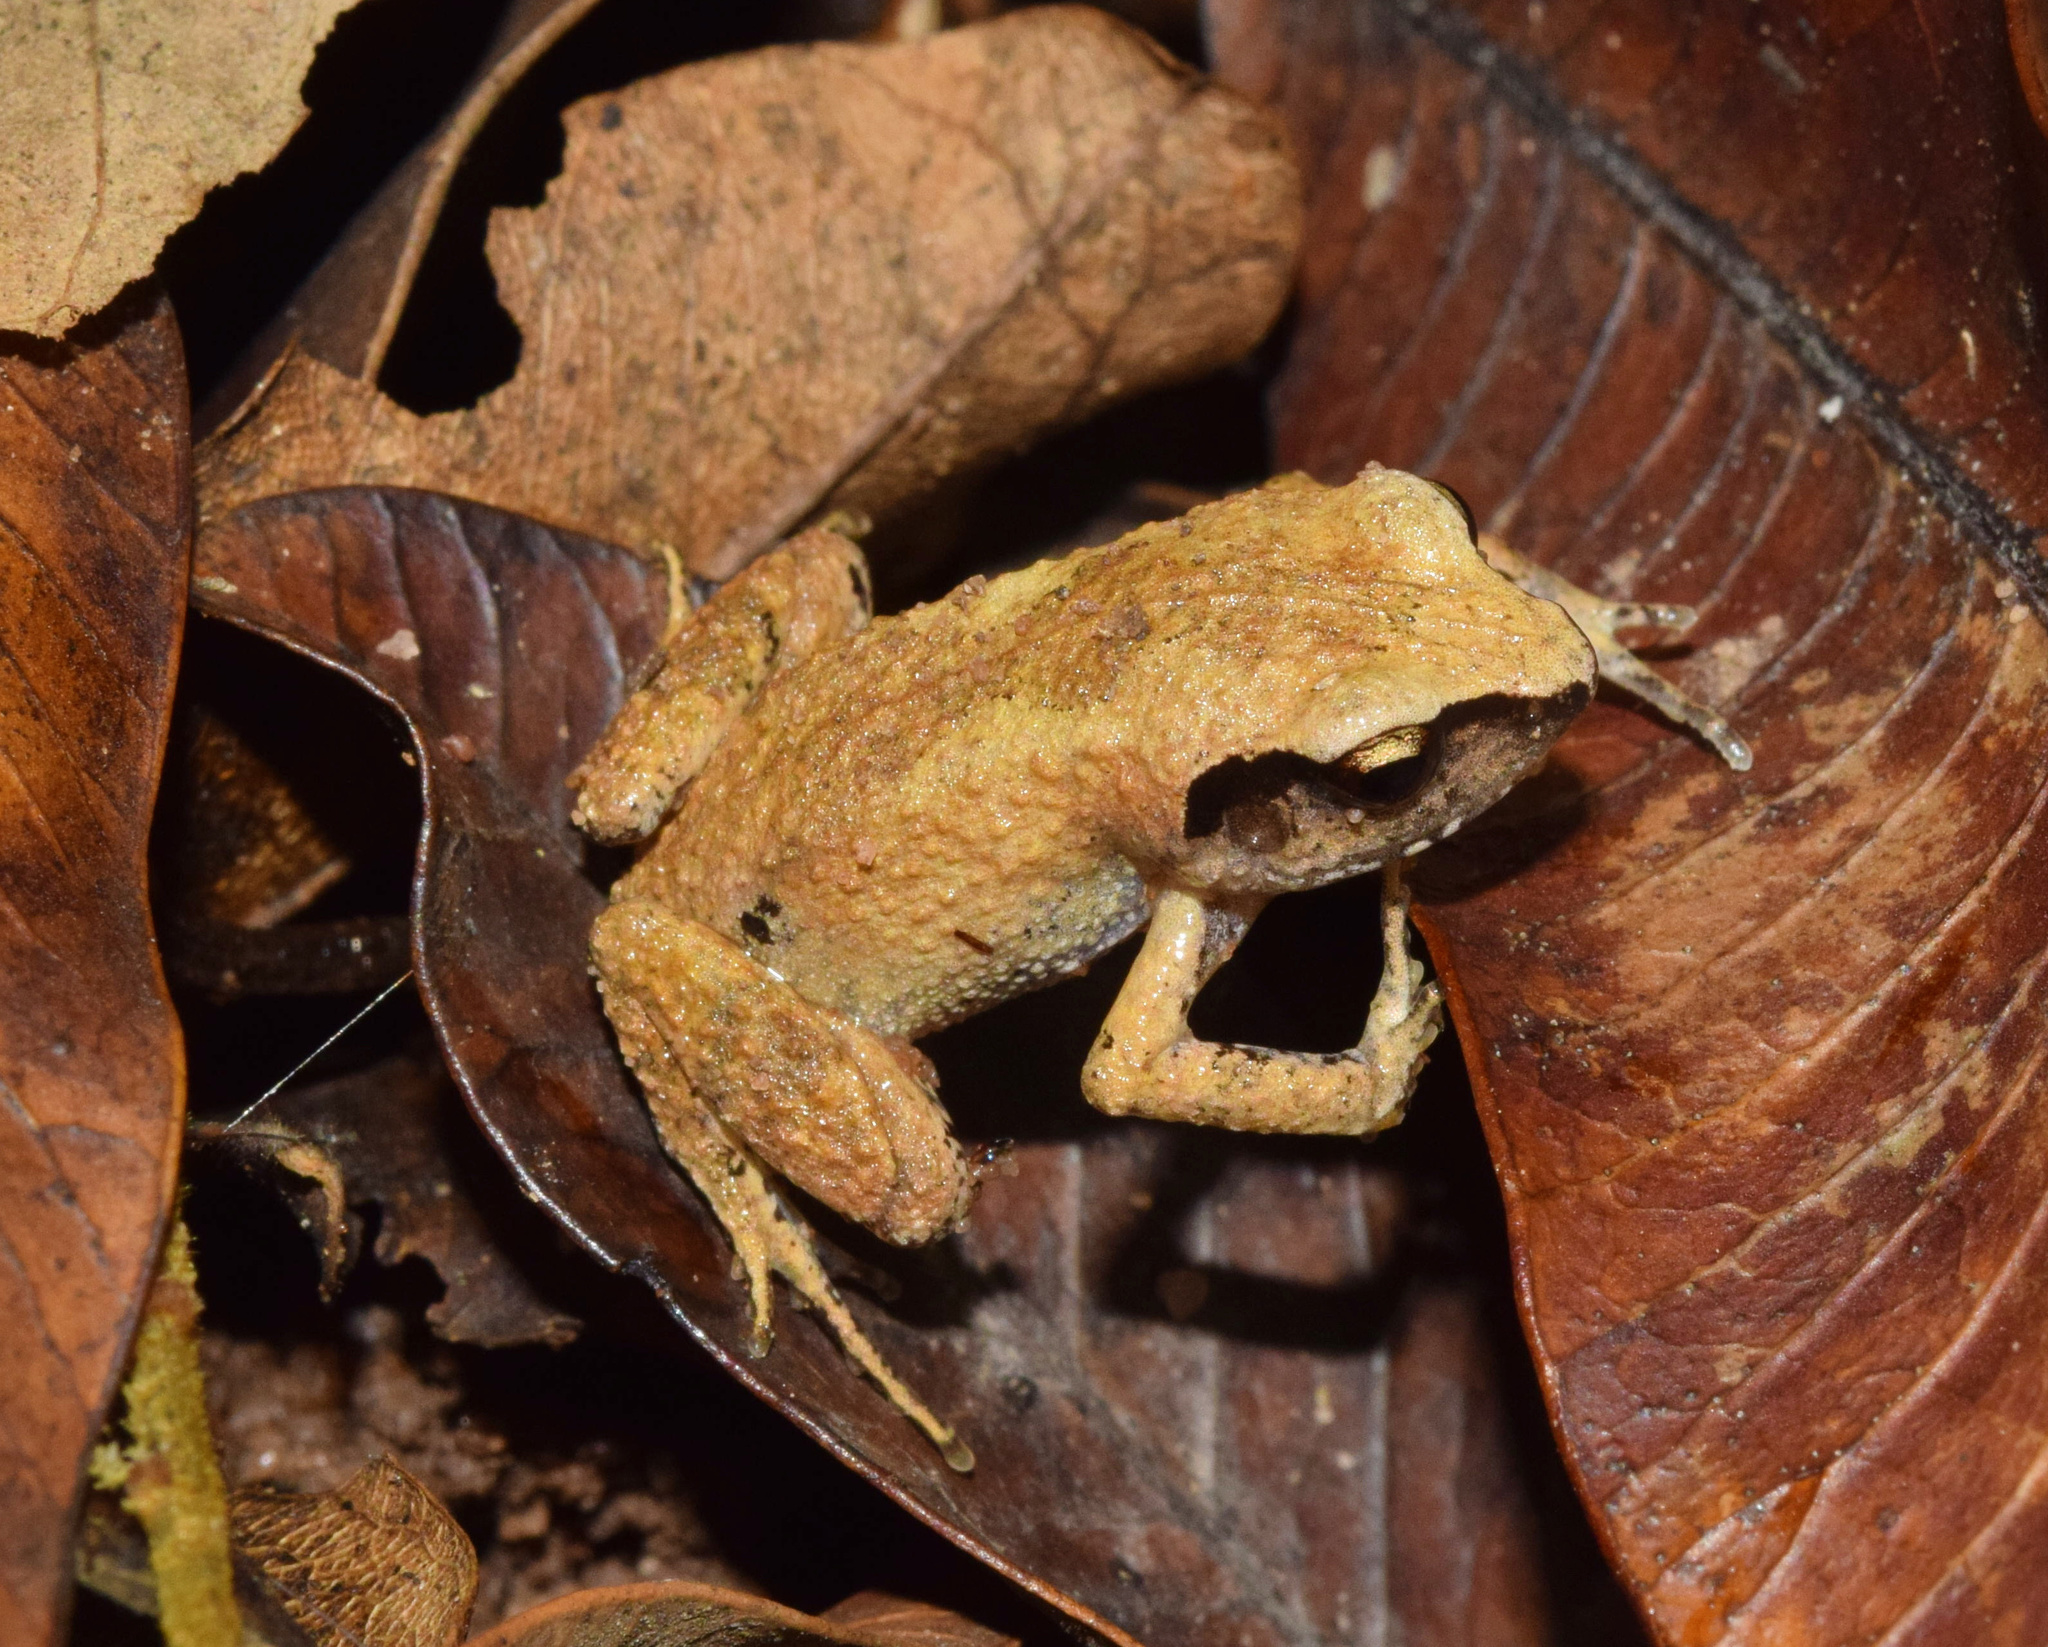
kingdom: Animalia
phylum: Chordata
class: Amphibia
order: Anura
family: Arthroleptidae
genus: Arthroleptis
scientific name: Arthroleptis wahlbergii
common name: Bush squeaker
